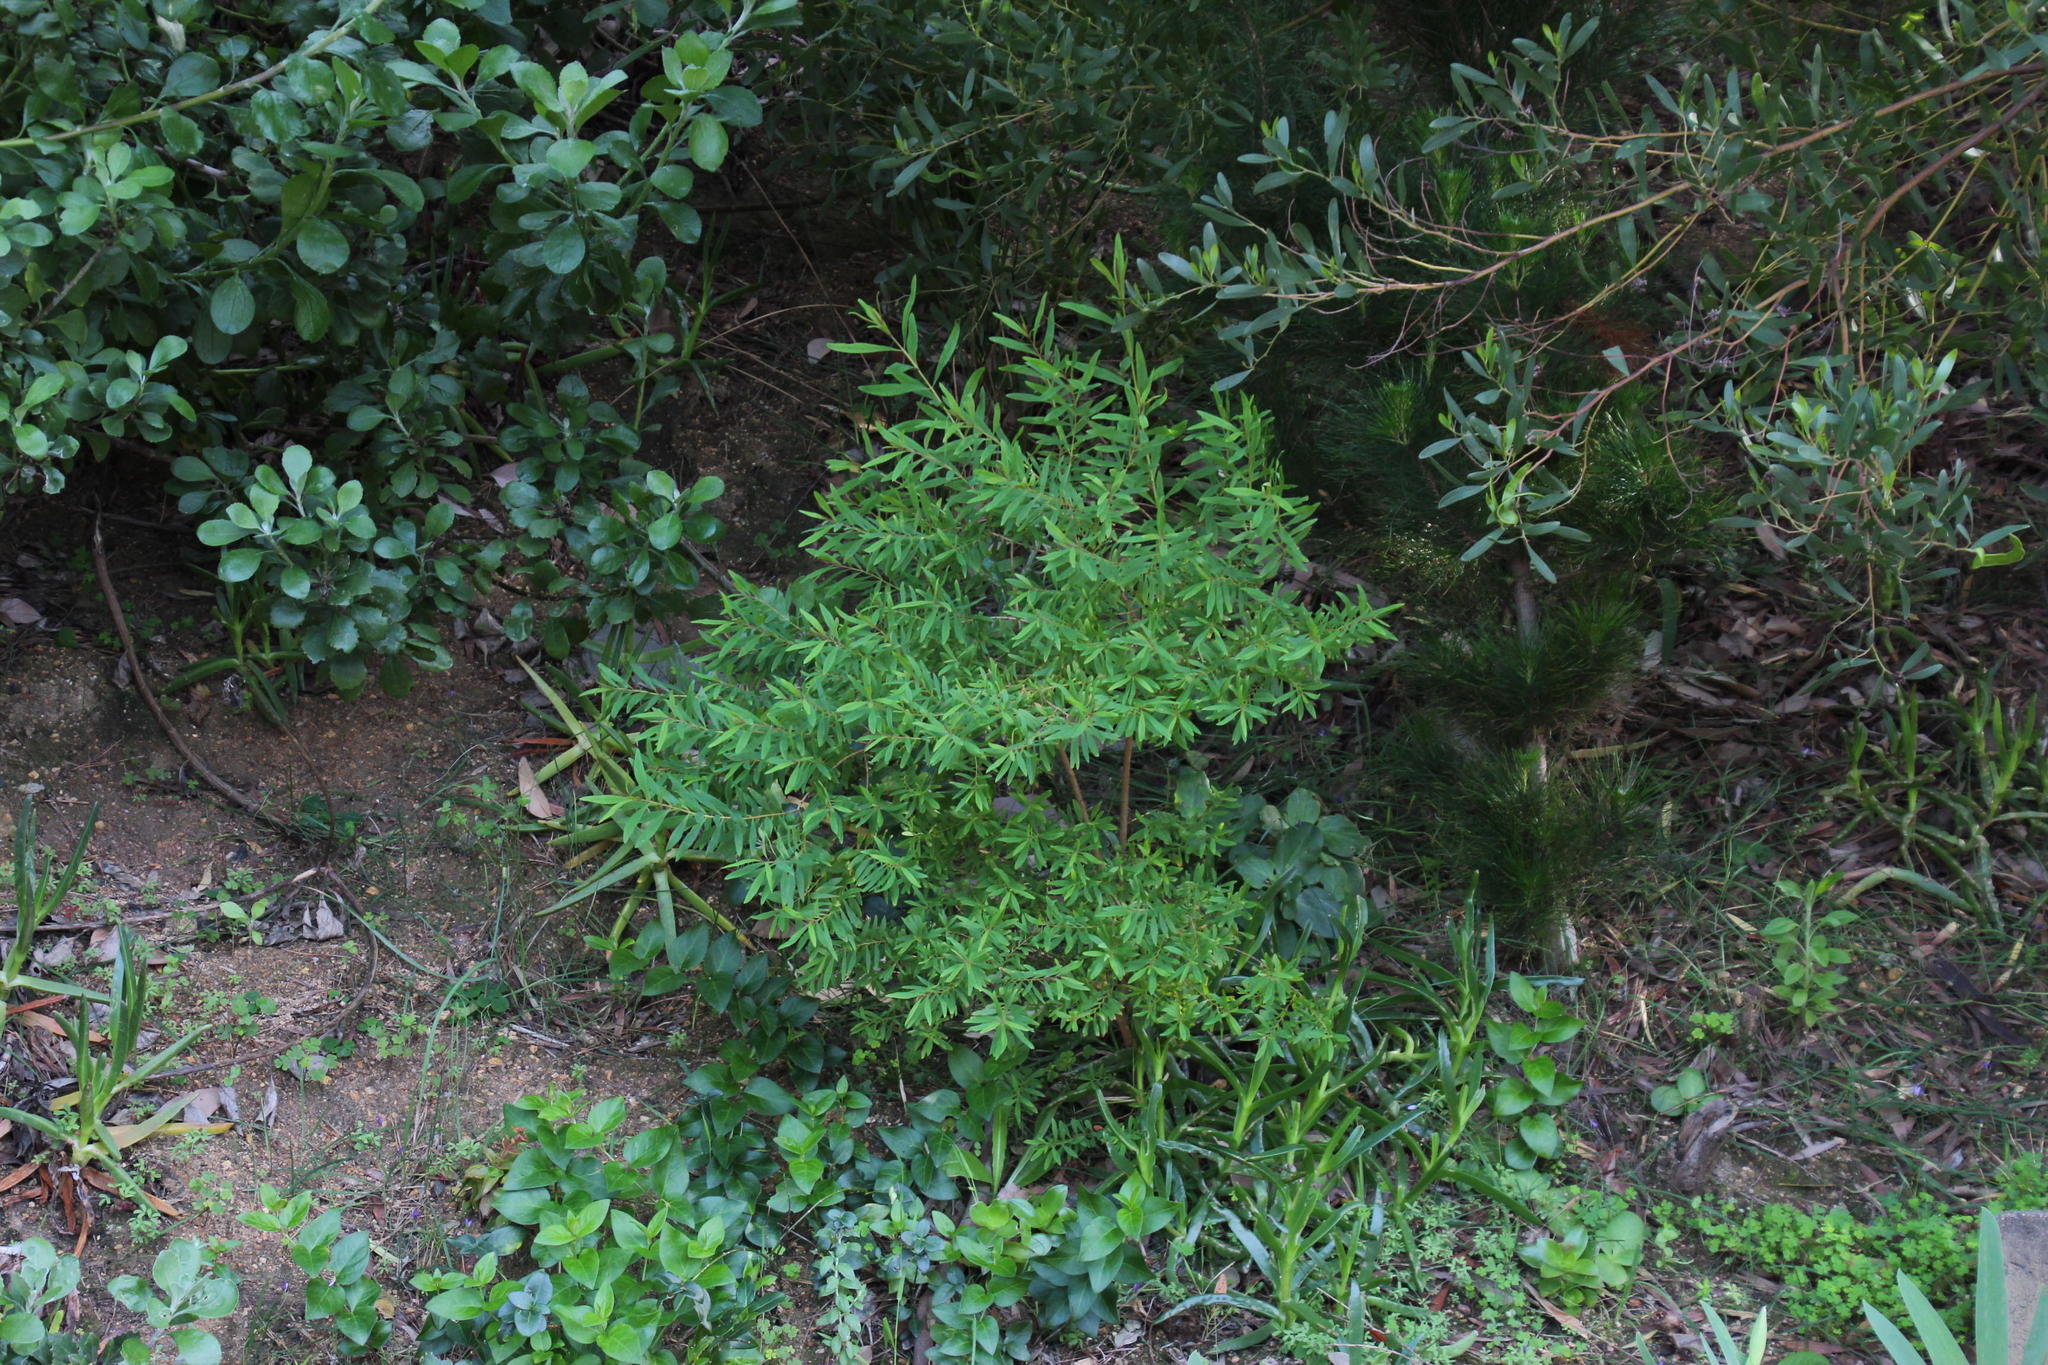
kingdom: Plantae
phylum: Tracheophyta
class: Magnoliopsida
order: Malpighiales
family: Hypericaceae
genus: Hypericum
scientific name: Hypericum canariense
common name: Canary island st. johnswort
